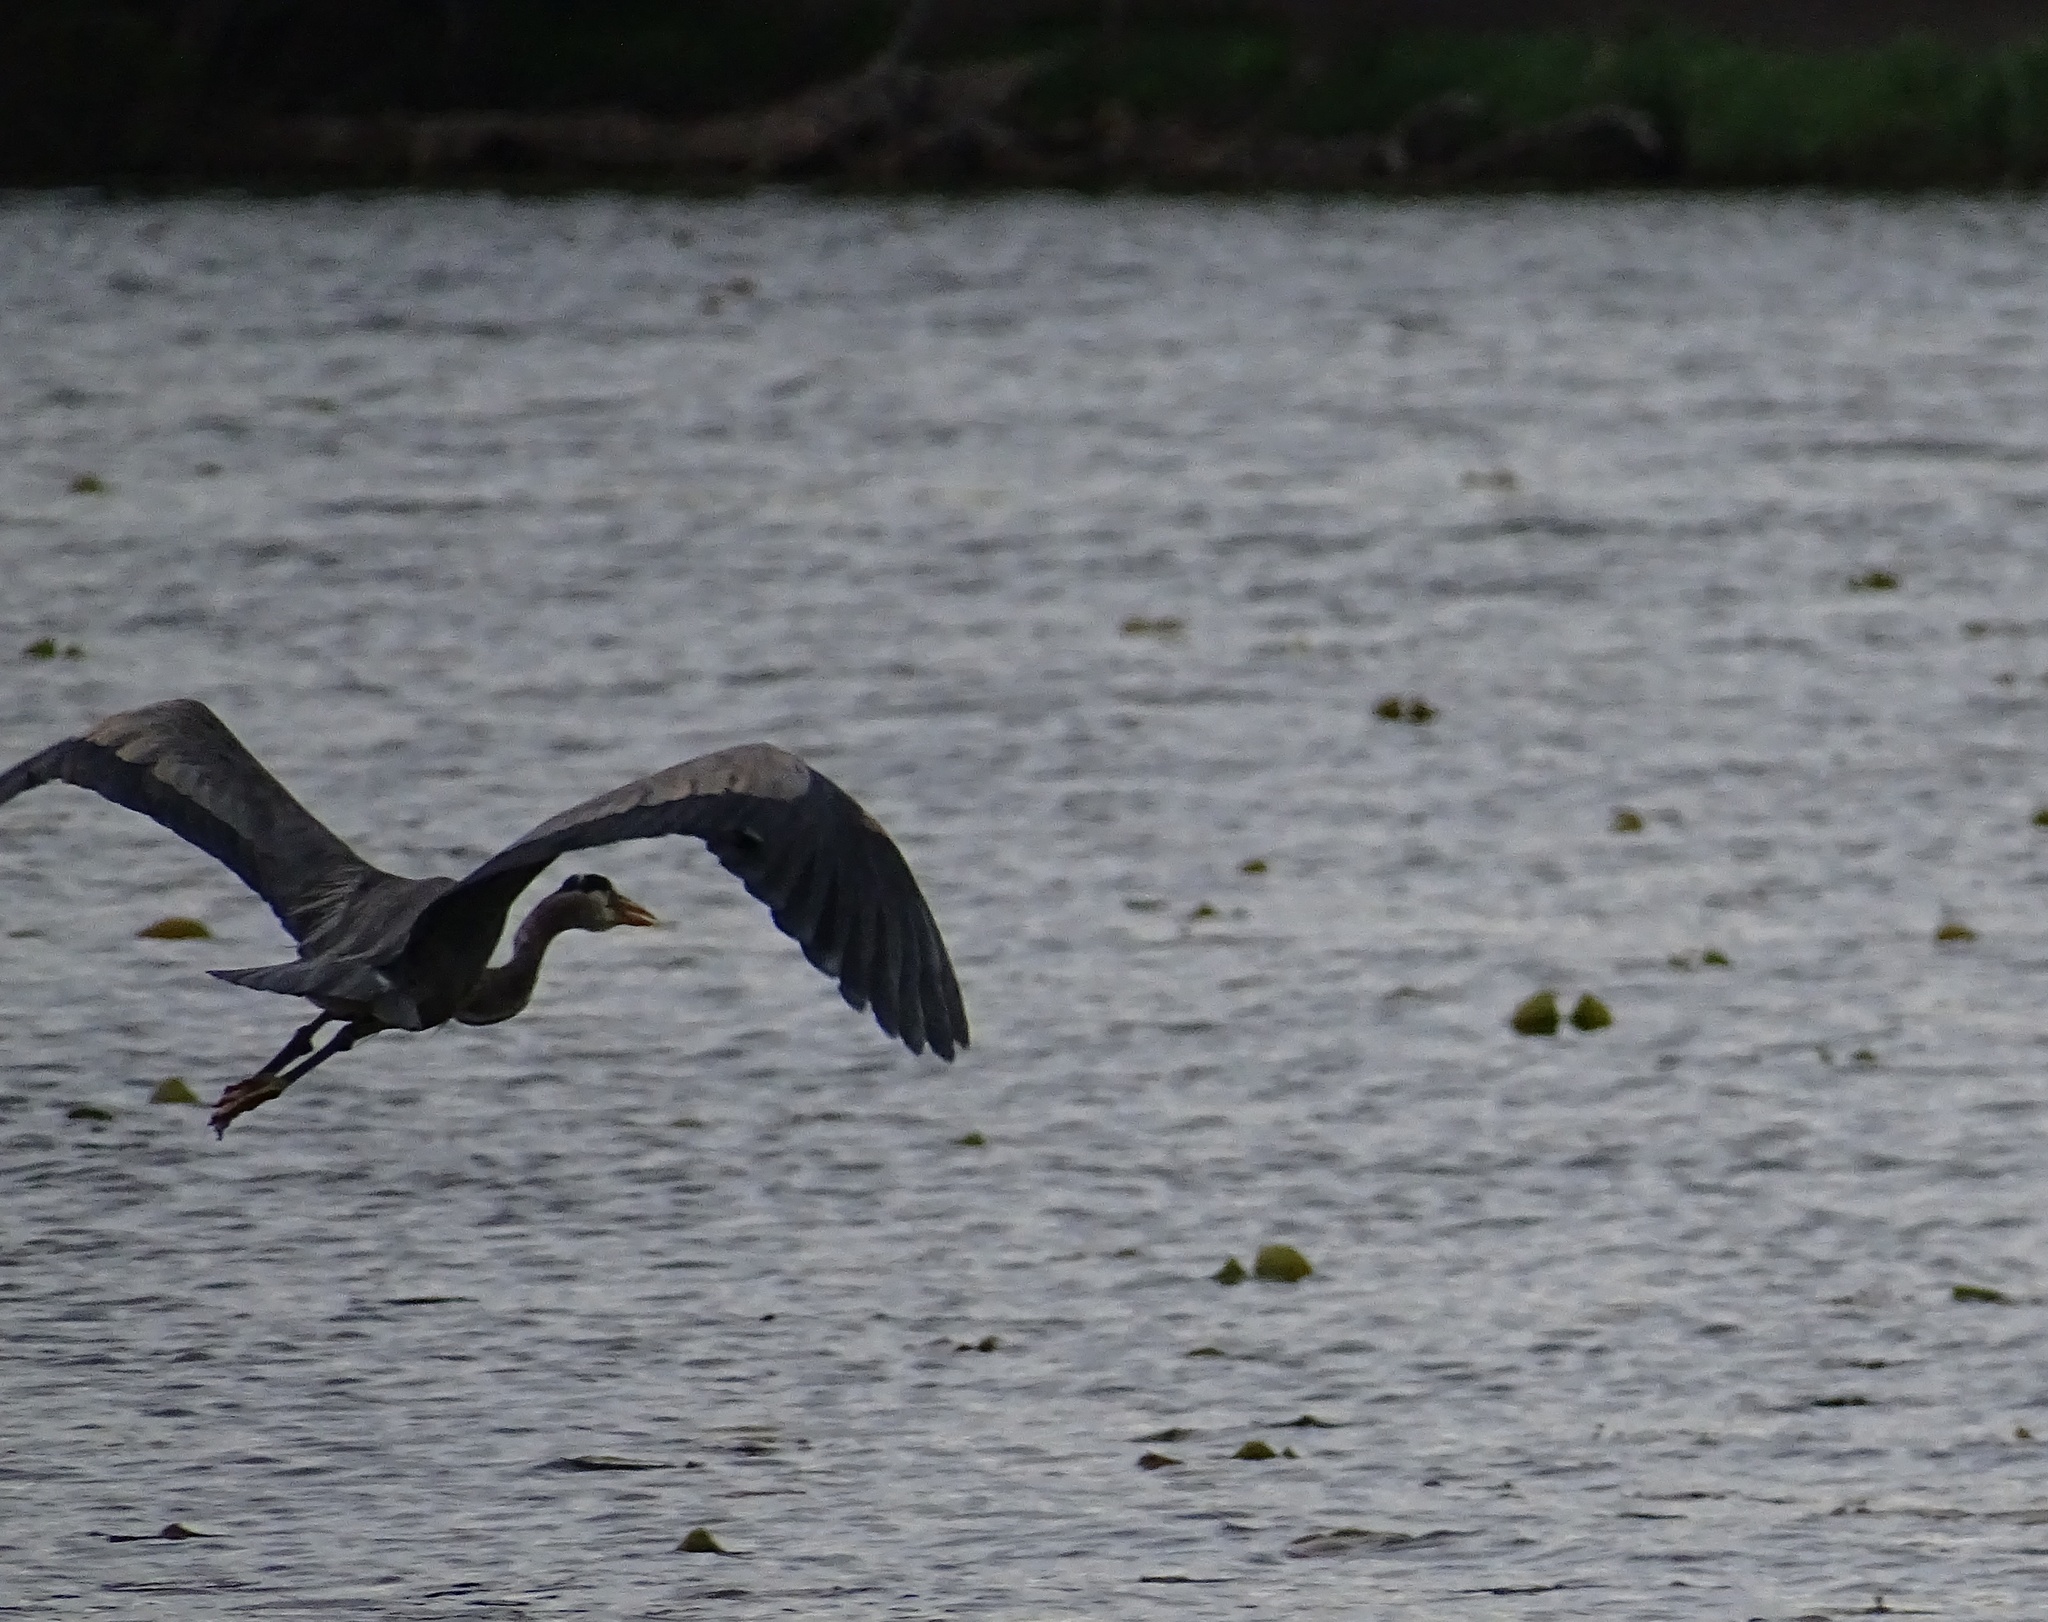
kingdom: Animalia
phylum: Chordata
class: Aves
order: Pelecaniformes
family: Ardeidae
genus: Ardea
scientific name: Ardea herodias
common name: Great blue heron
